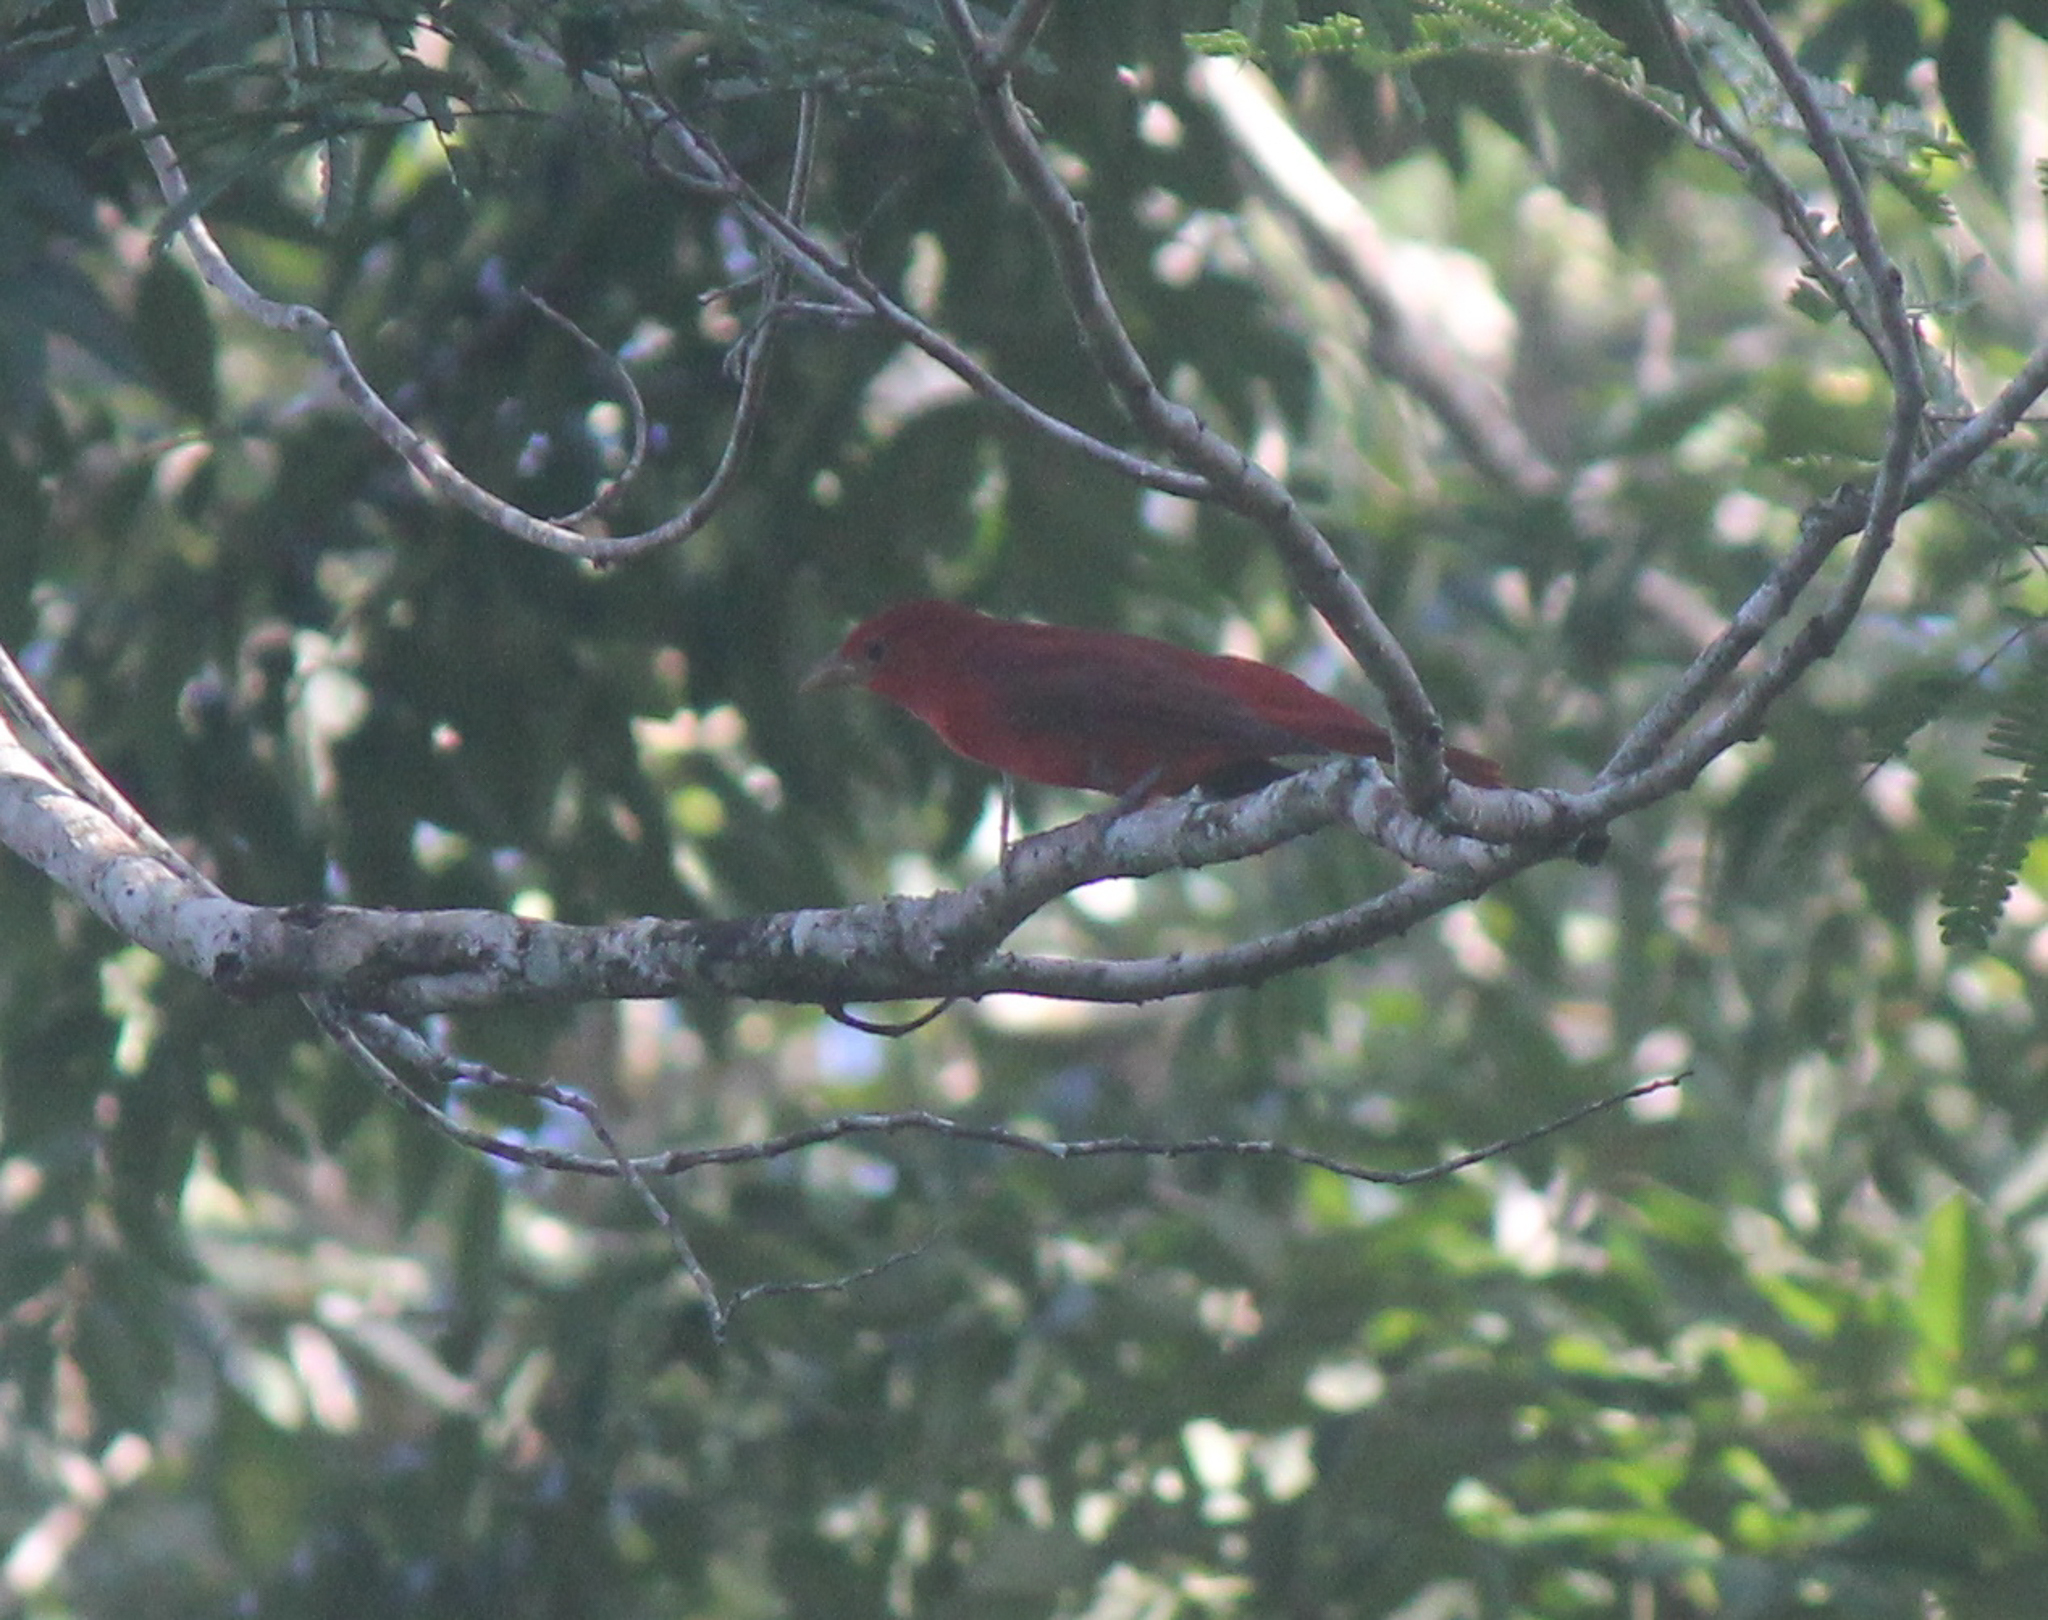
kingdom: Animalia
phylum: Chordata
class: Aves
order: Passeriformes
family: Cardinalidae
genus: Piranga
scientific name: Piranga rubra
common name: Summer tanager
